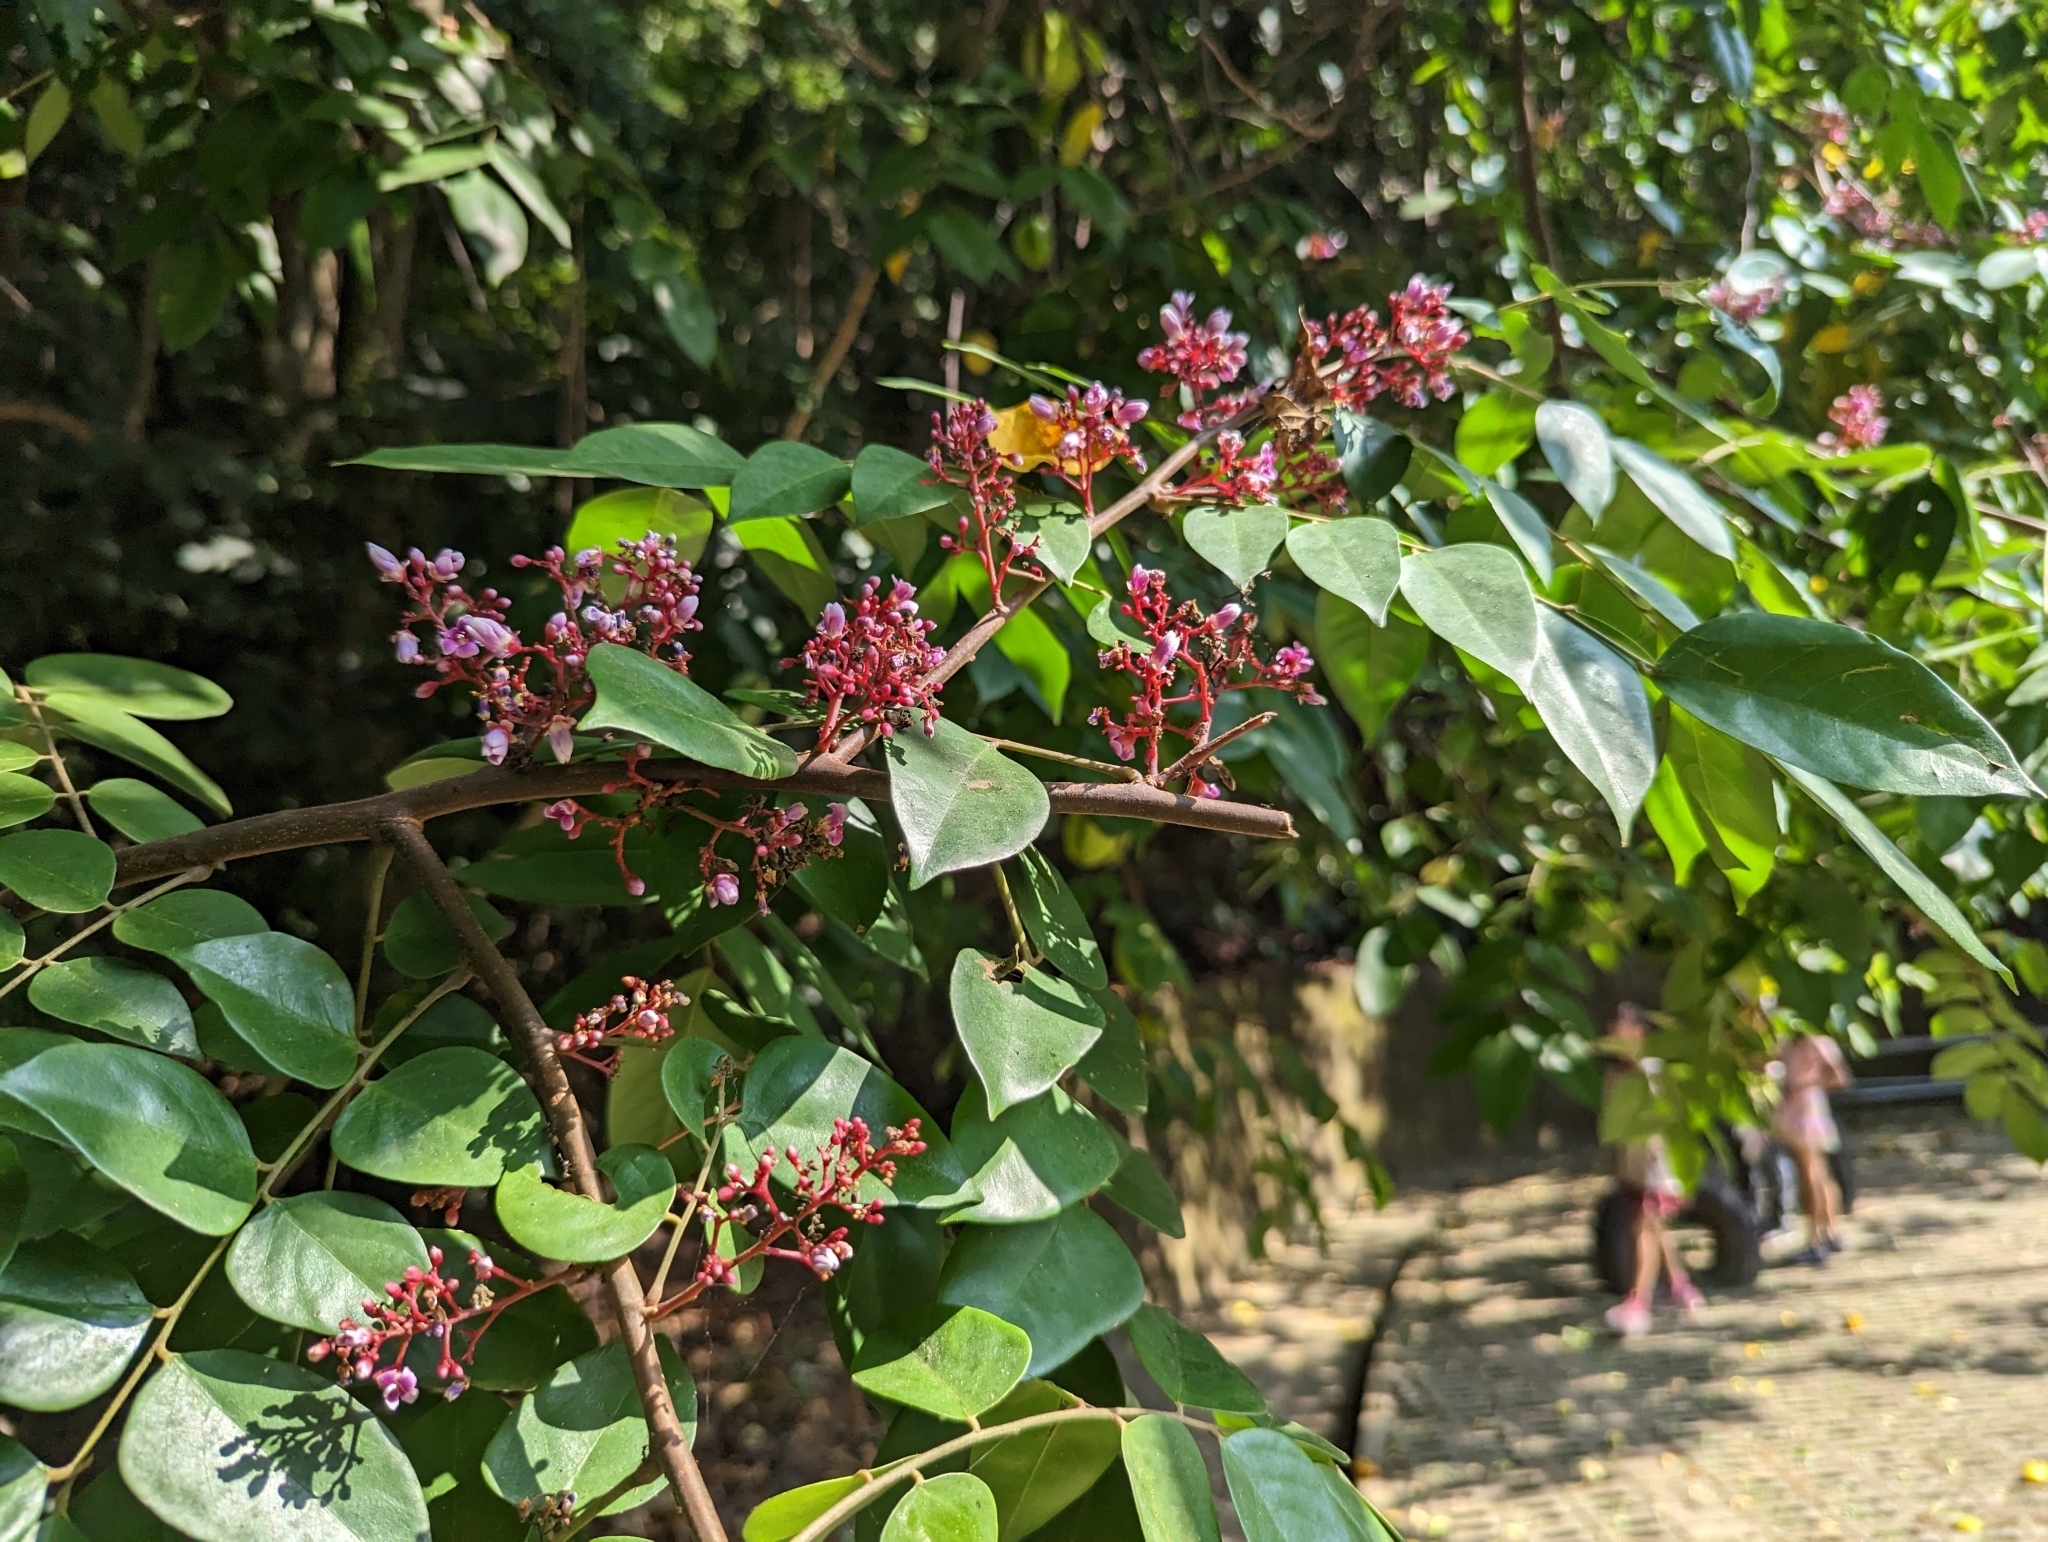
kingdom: Plantae
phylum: Tracheophyta
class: Magnoliopsida
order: Oxalidales
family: Oxalidaceae
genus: Averrhoa
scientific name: Averrhoa carambola
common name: Blimbing
